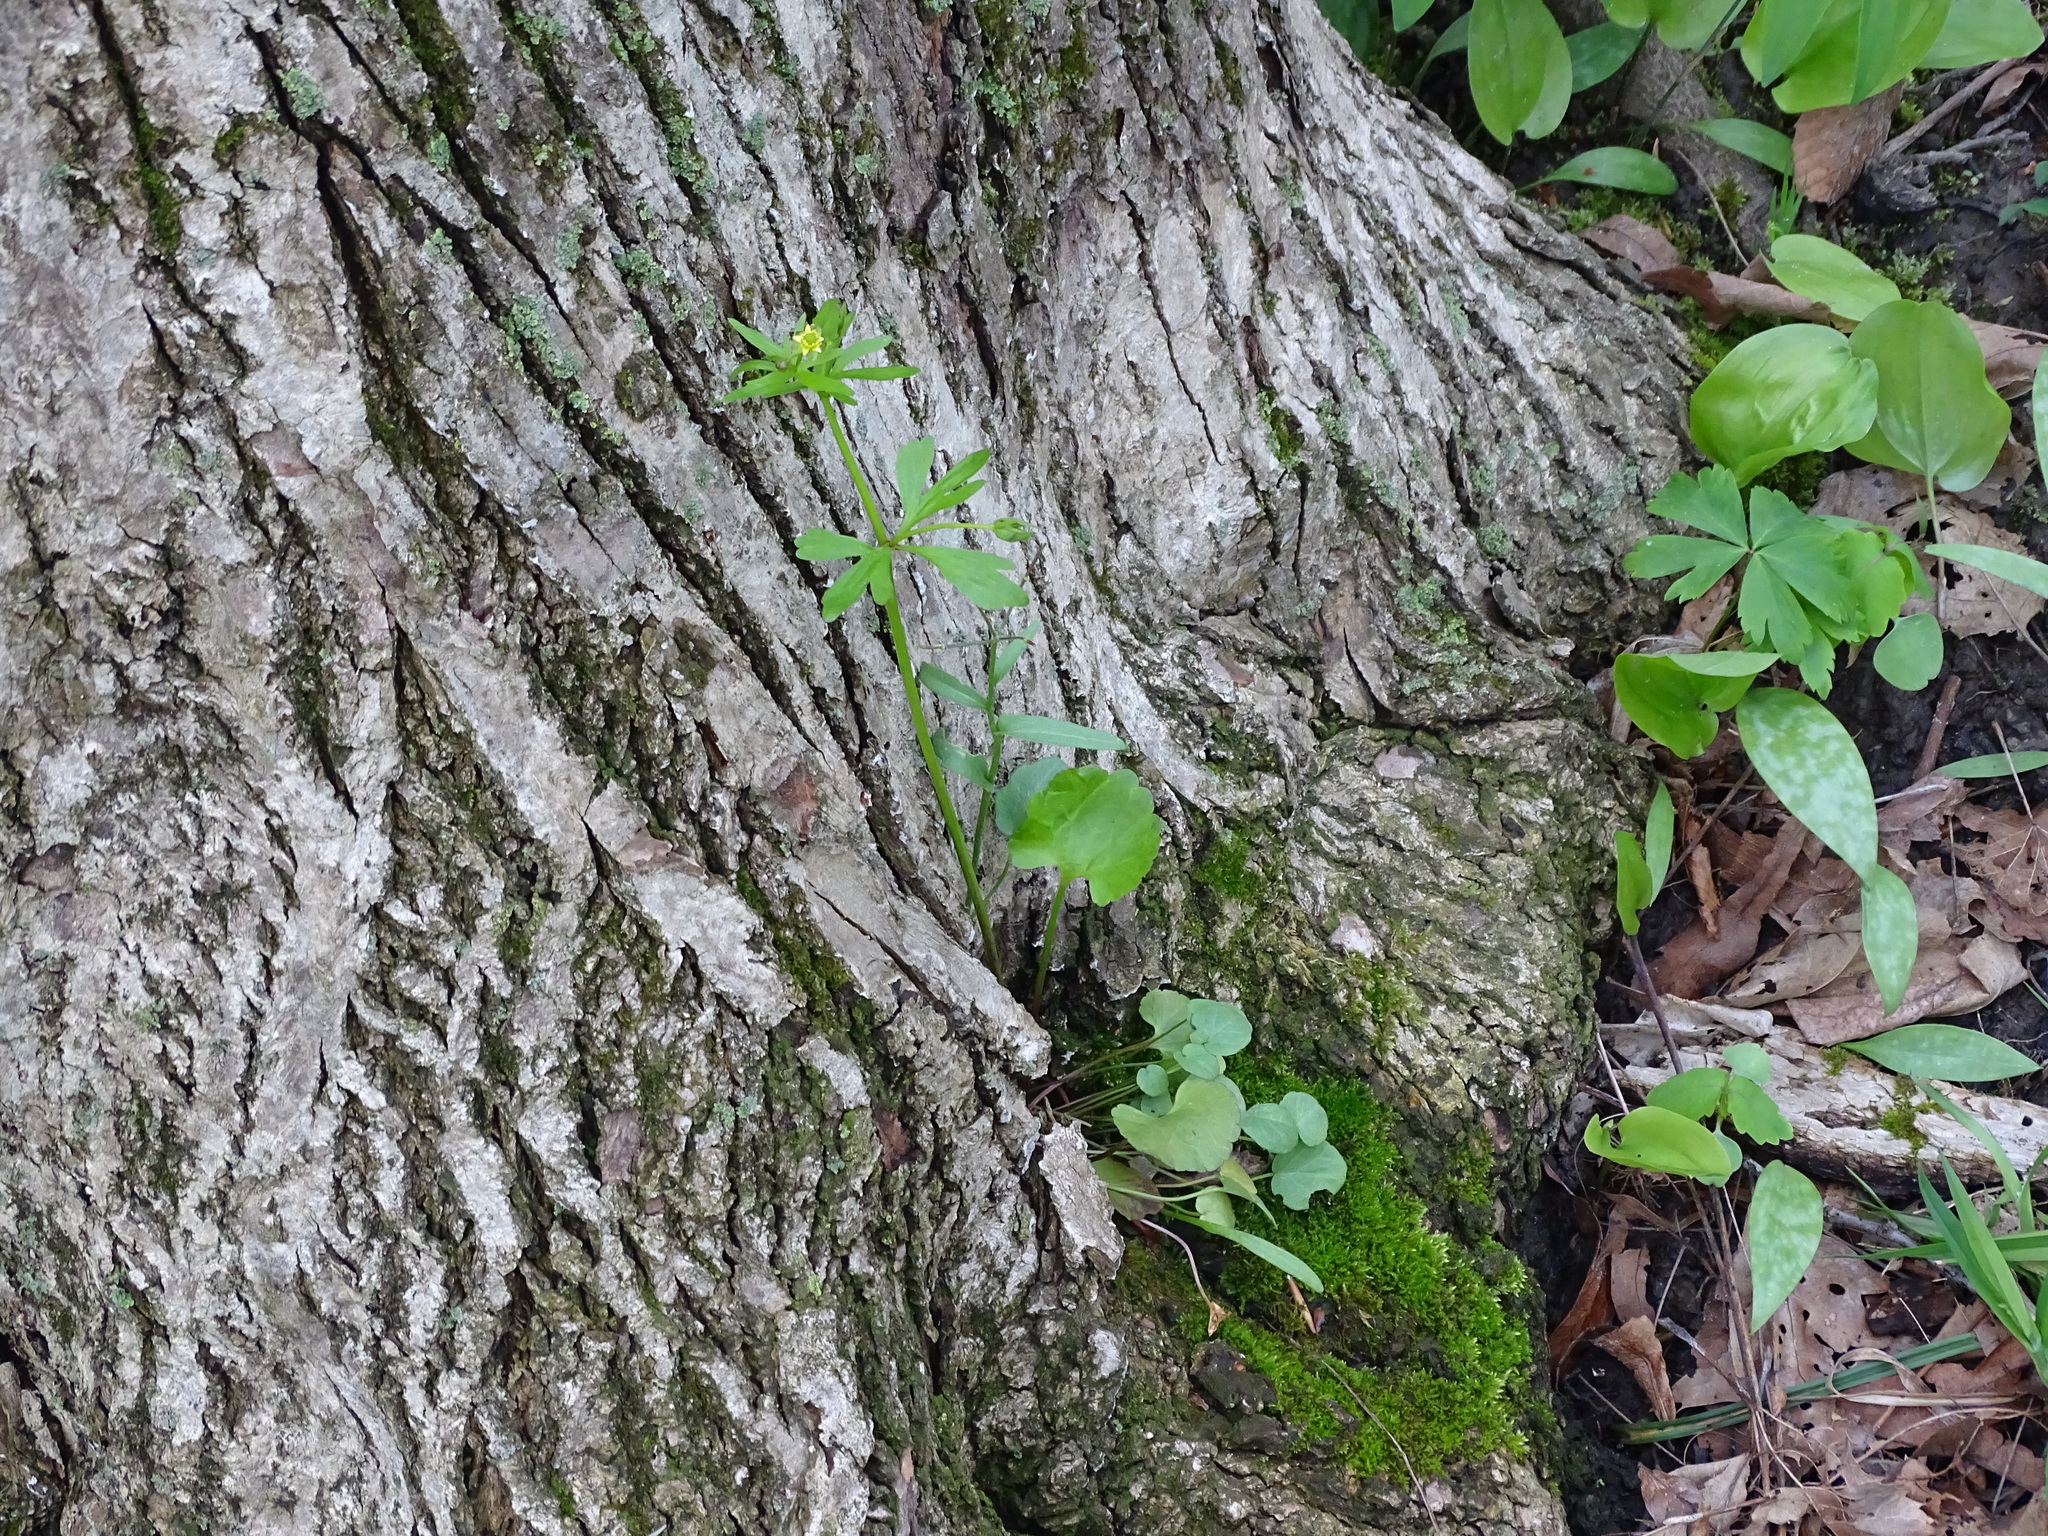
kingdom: Plantae
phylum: Tracheophyta
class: Magnoliopsida
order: Ranunculales
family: Ranunculaceae
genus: Ranunculus
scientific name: Ranunculus abortivus
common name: Early wood buttercup
